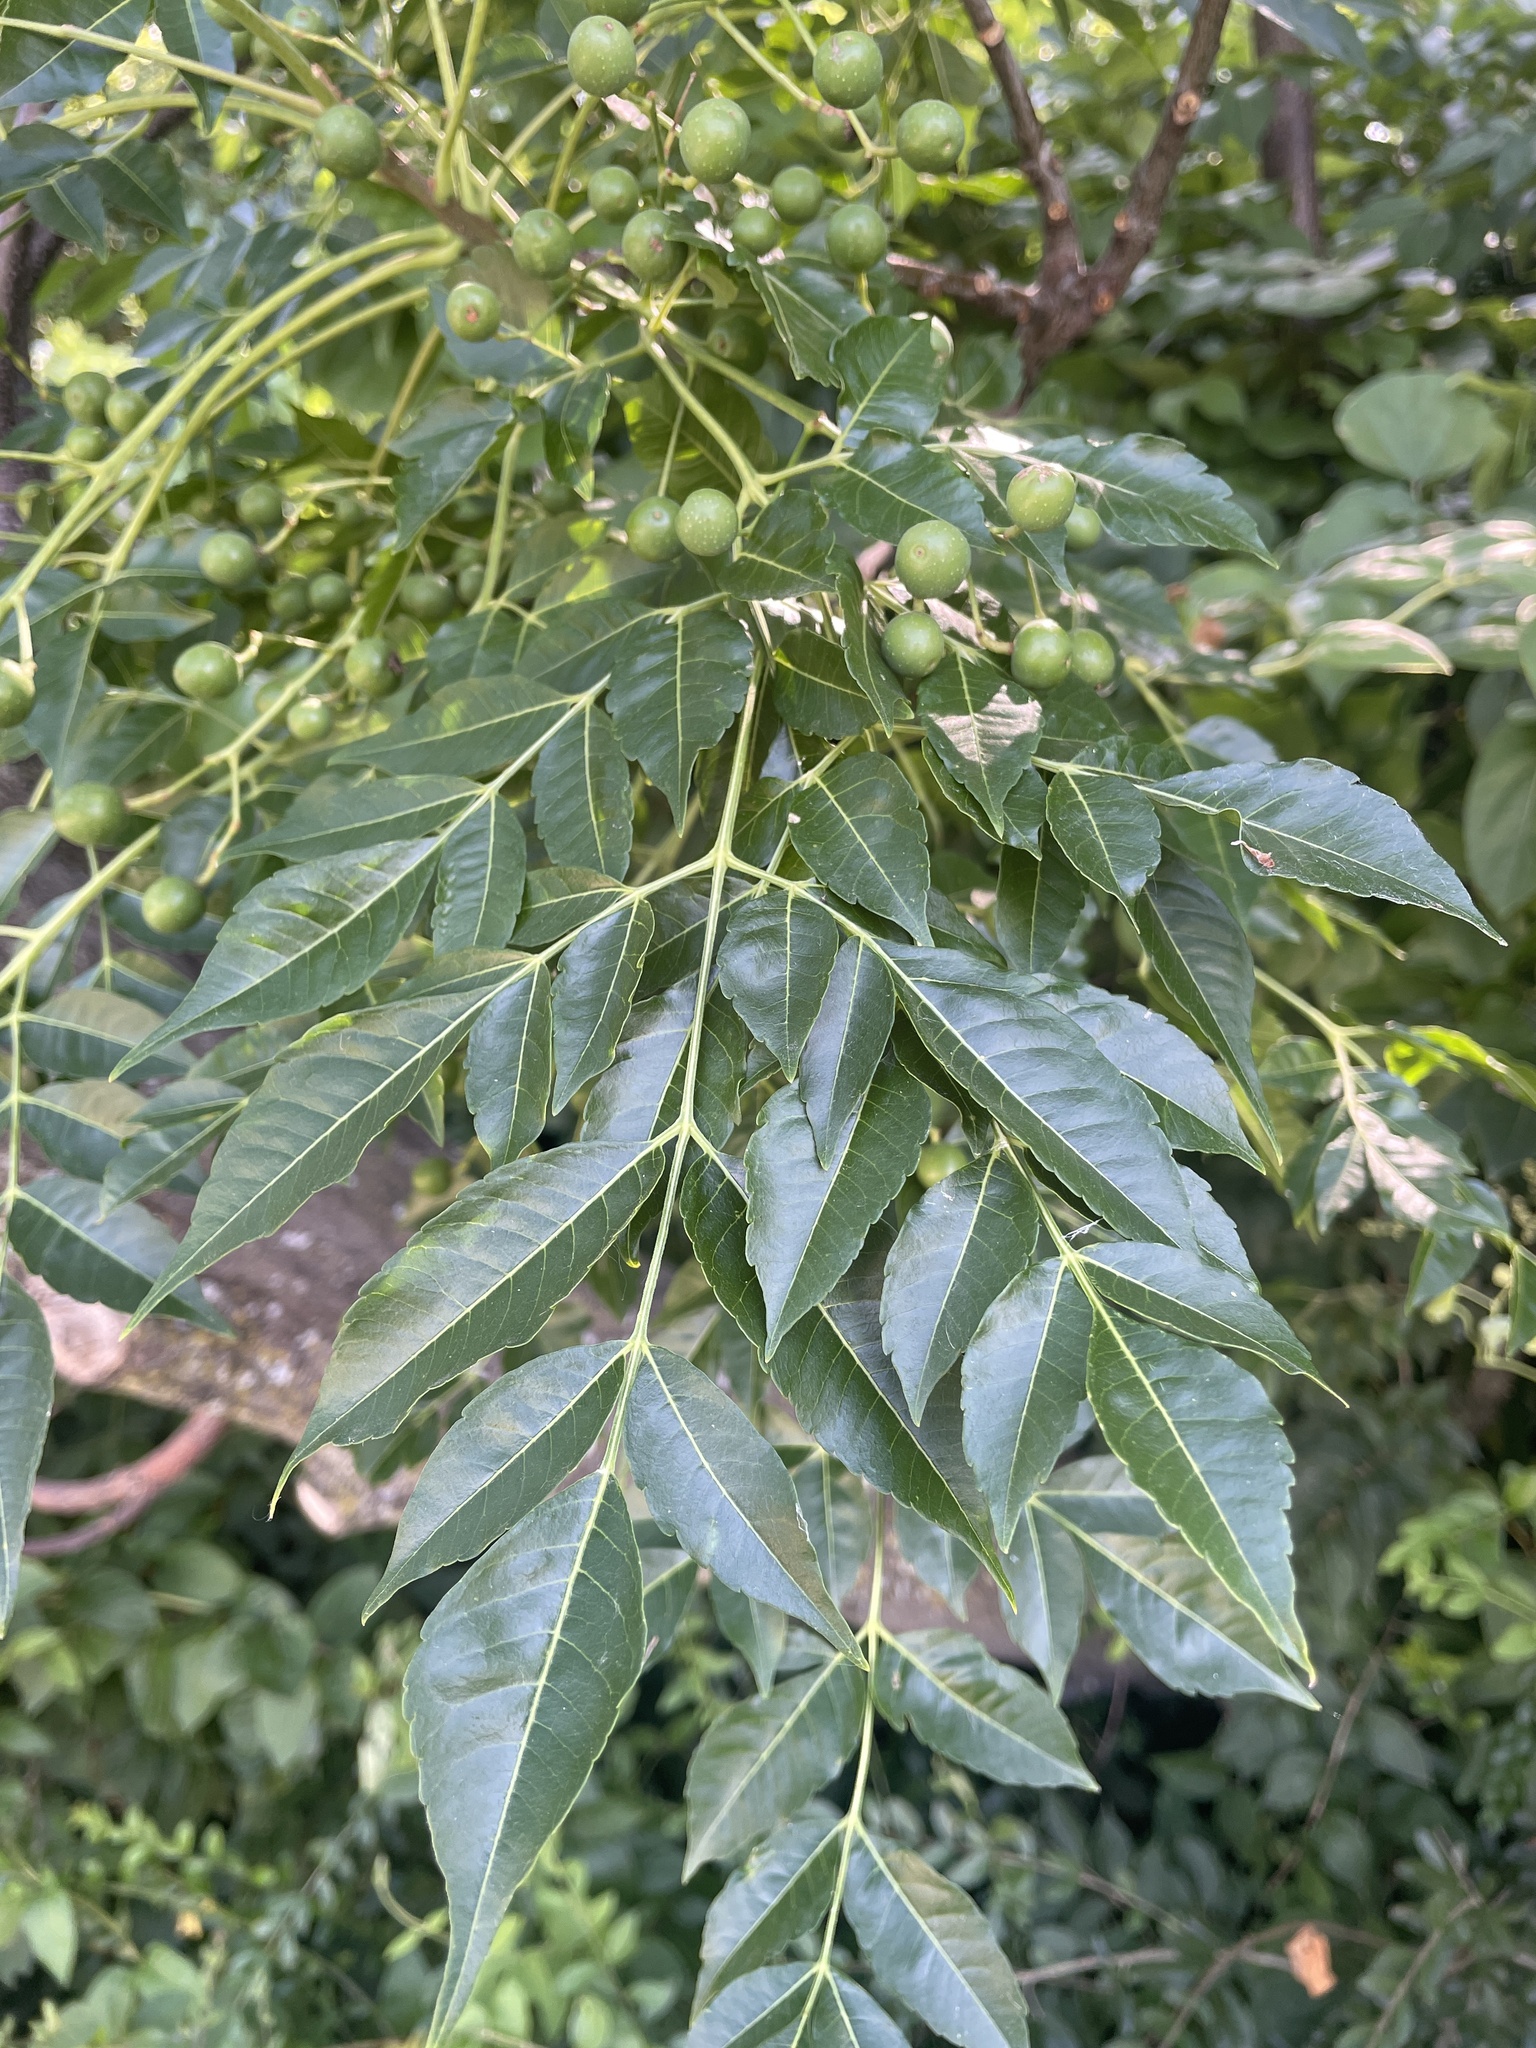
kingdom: Plantae
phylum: Tracheophyta
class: Magnoliopsida
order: Sapindales
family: Meliaceae
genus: Melia
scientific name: Melia azedarach
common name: Chinaberrytree
